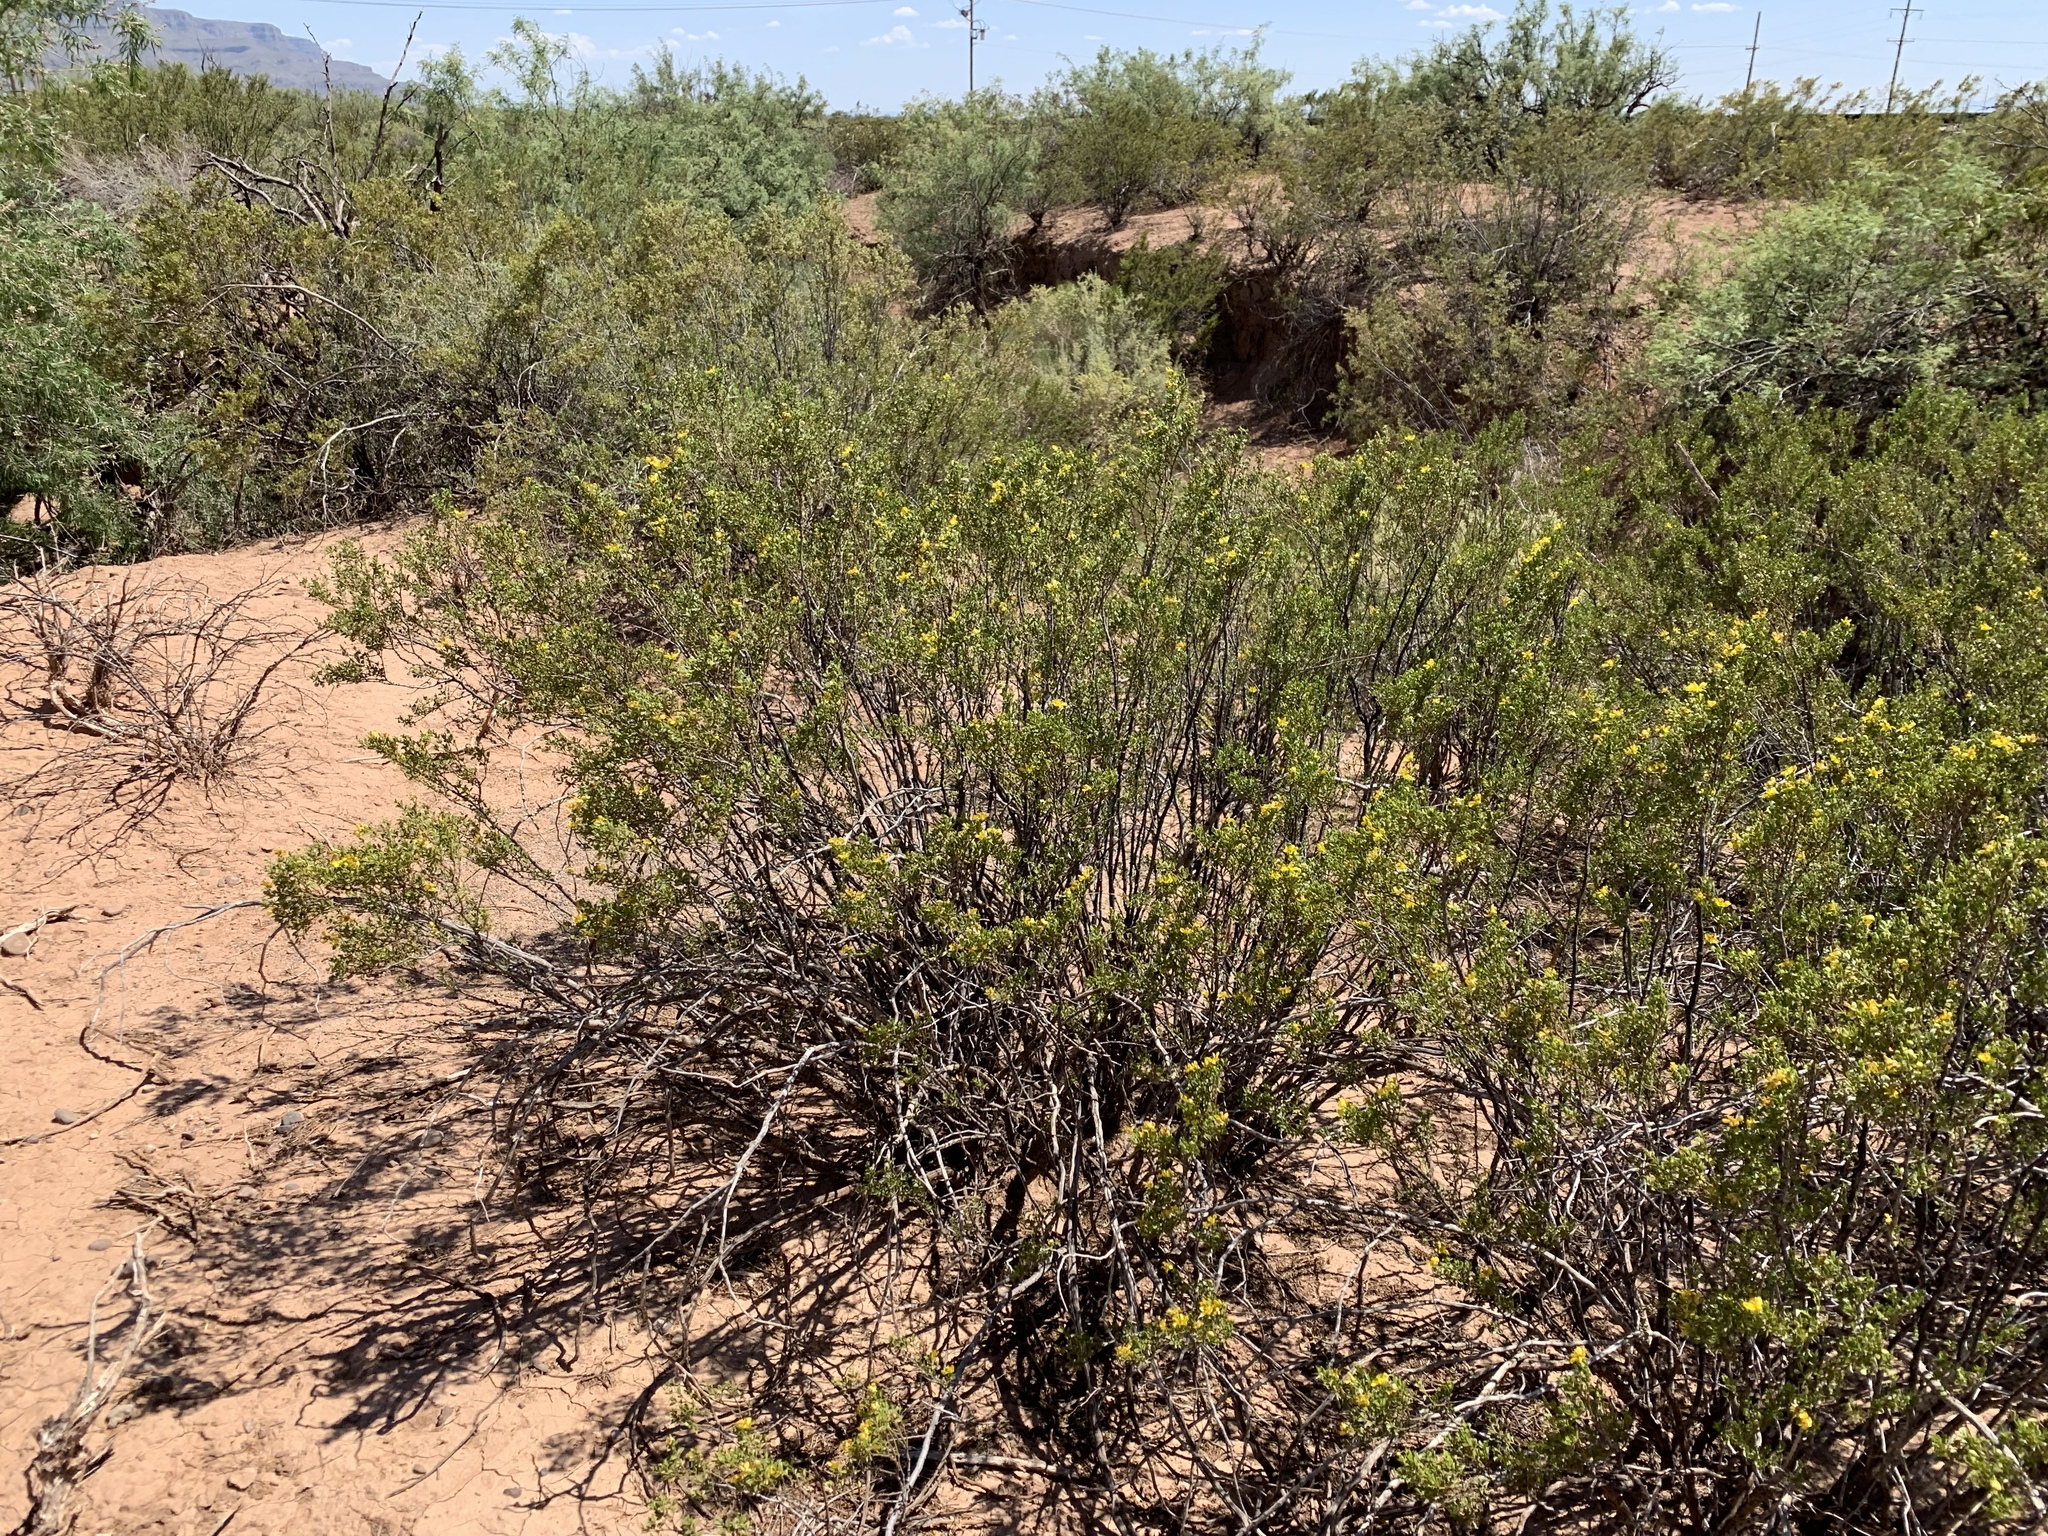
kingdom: Plantae
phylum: Tracheophyta
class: Magnoliopsida
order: Zygophyllales
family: Zygophyllaceae
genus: Larrea
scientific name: Larrea tridentata
